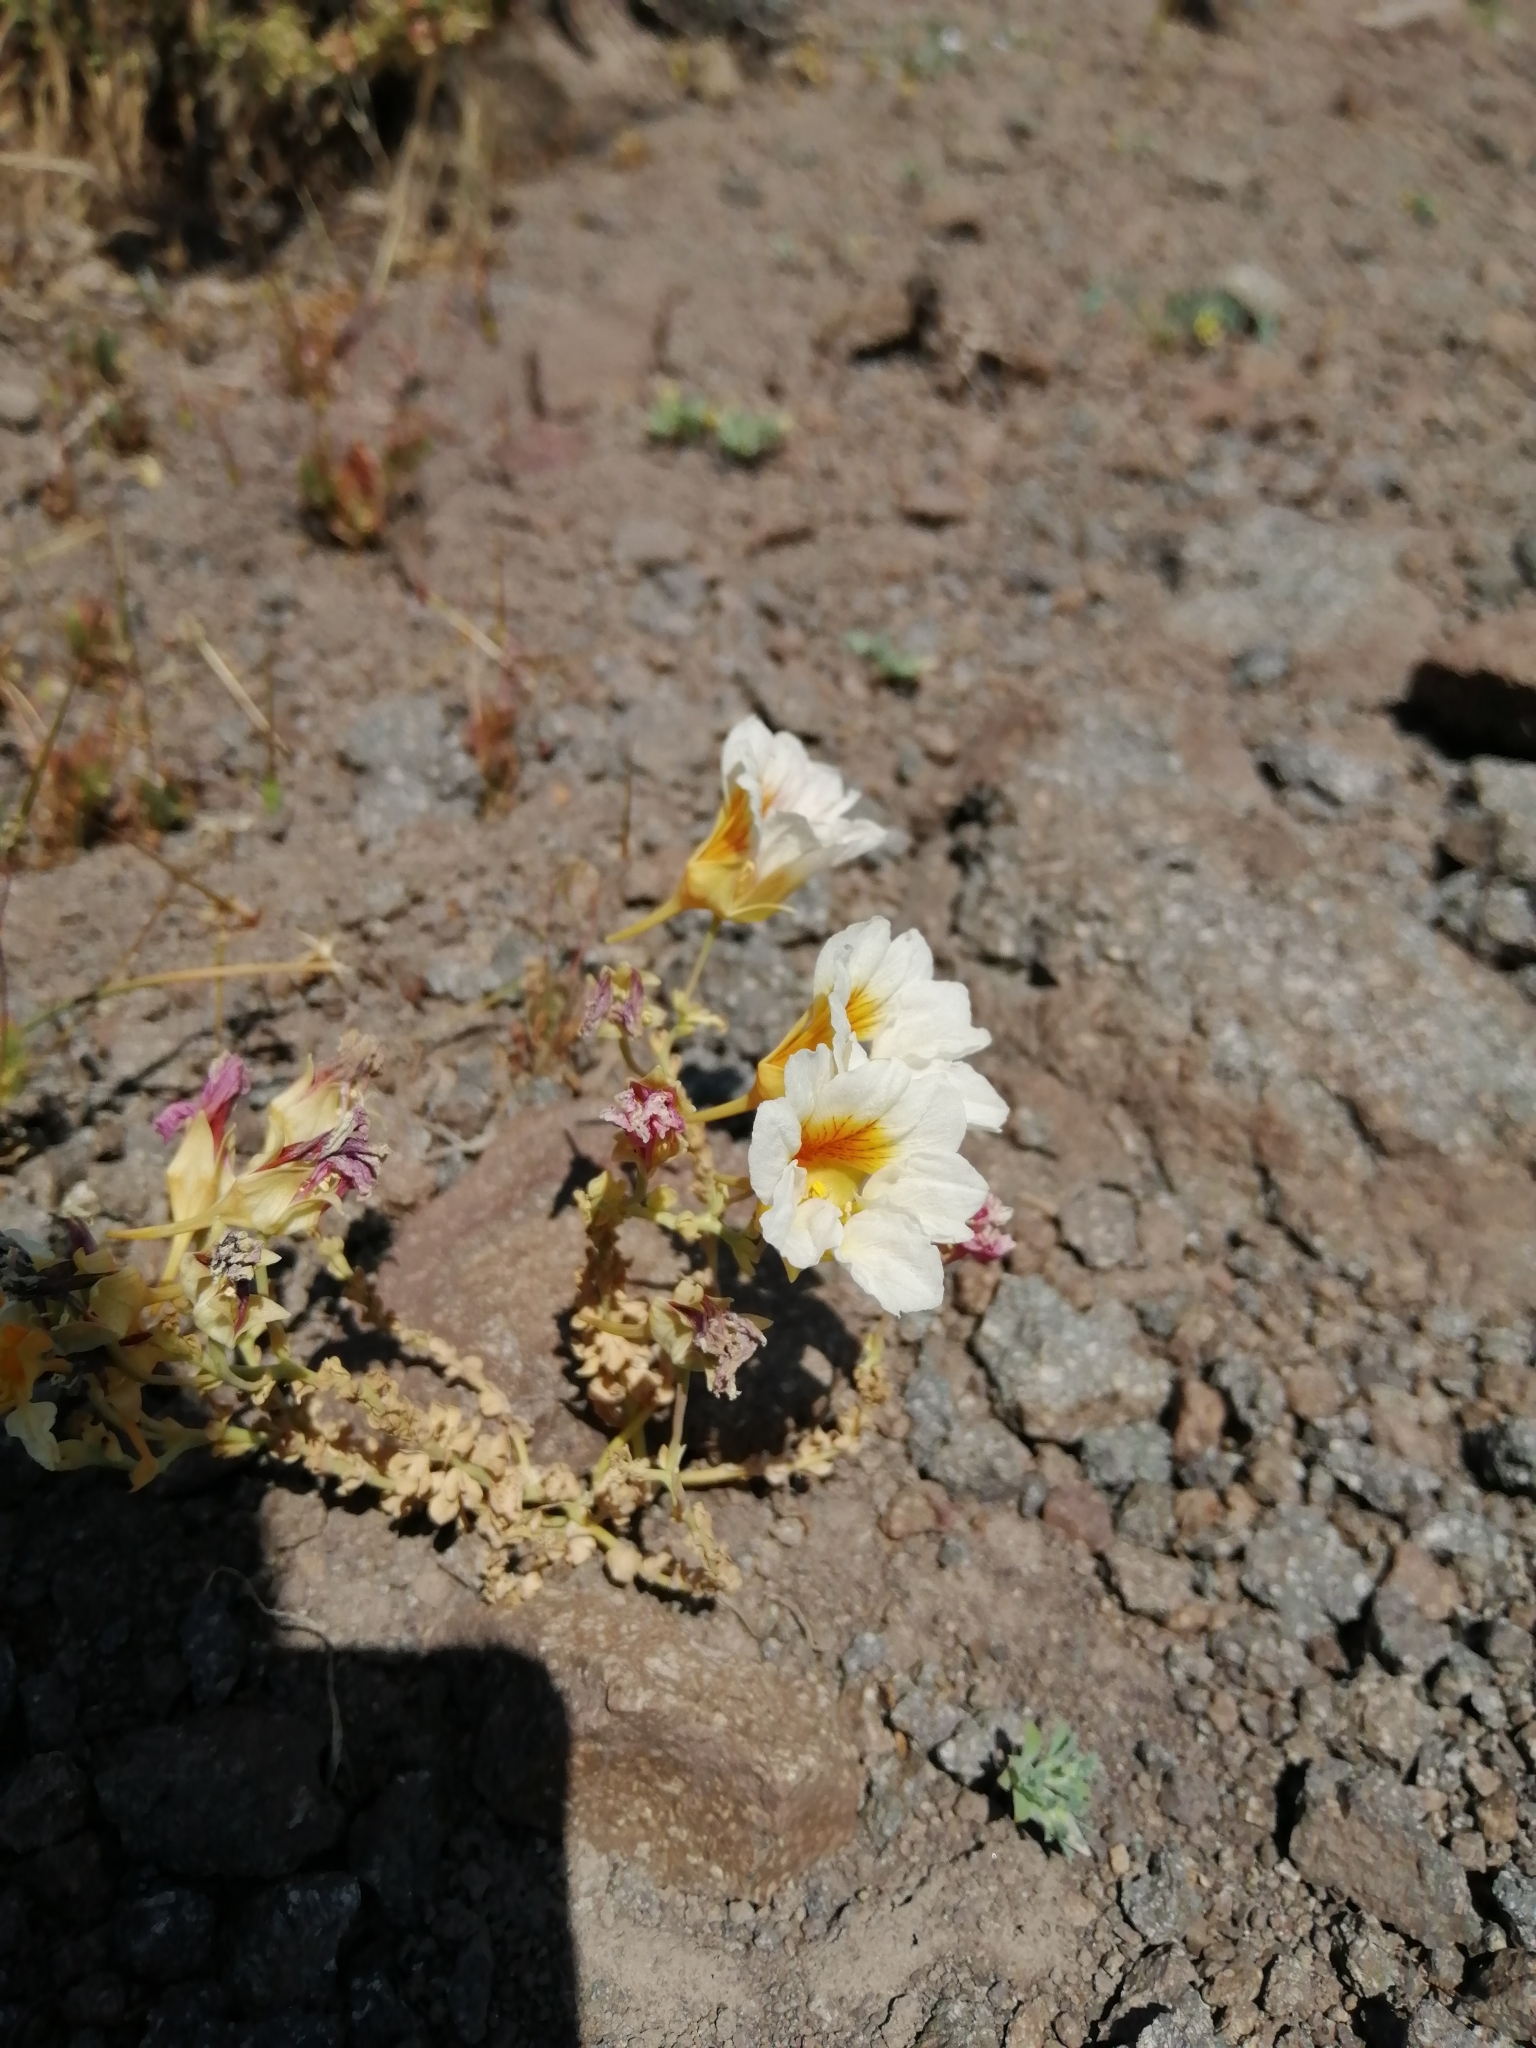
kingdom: Plantae
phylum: Tracheophyta
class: Magnoliopsida
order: Brassicales
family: Tropaeolaceae
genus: Tropaeolum
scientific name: Tropaeolum sessilifolium
